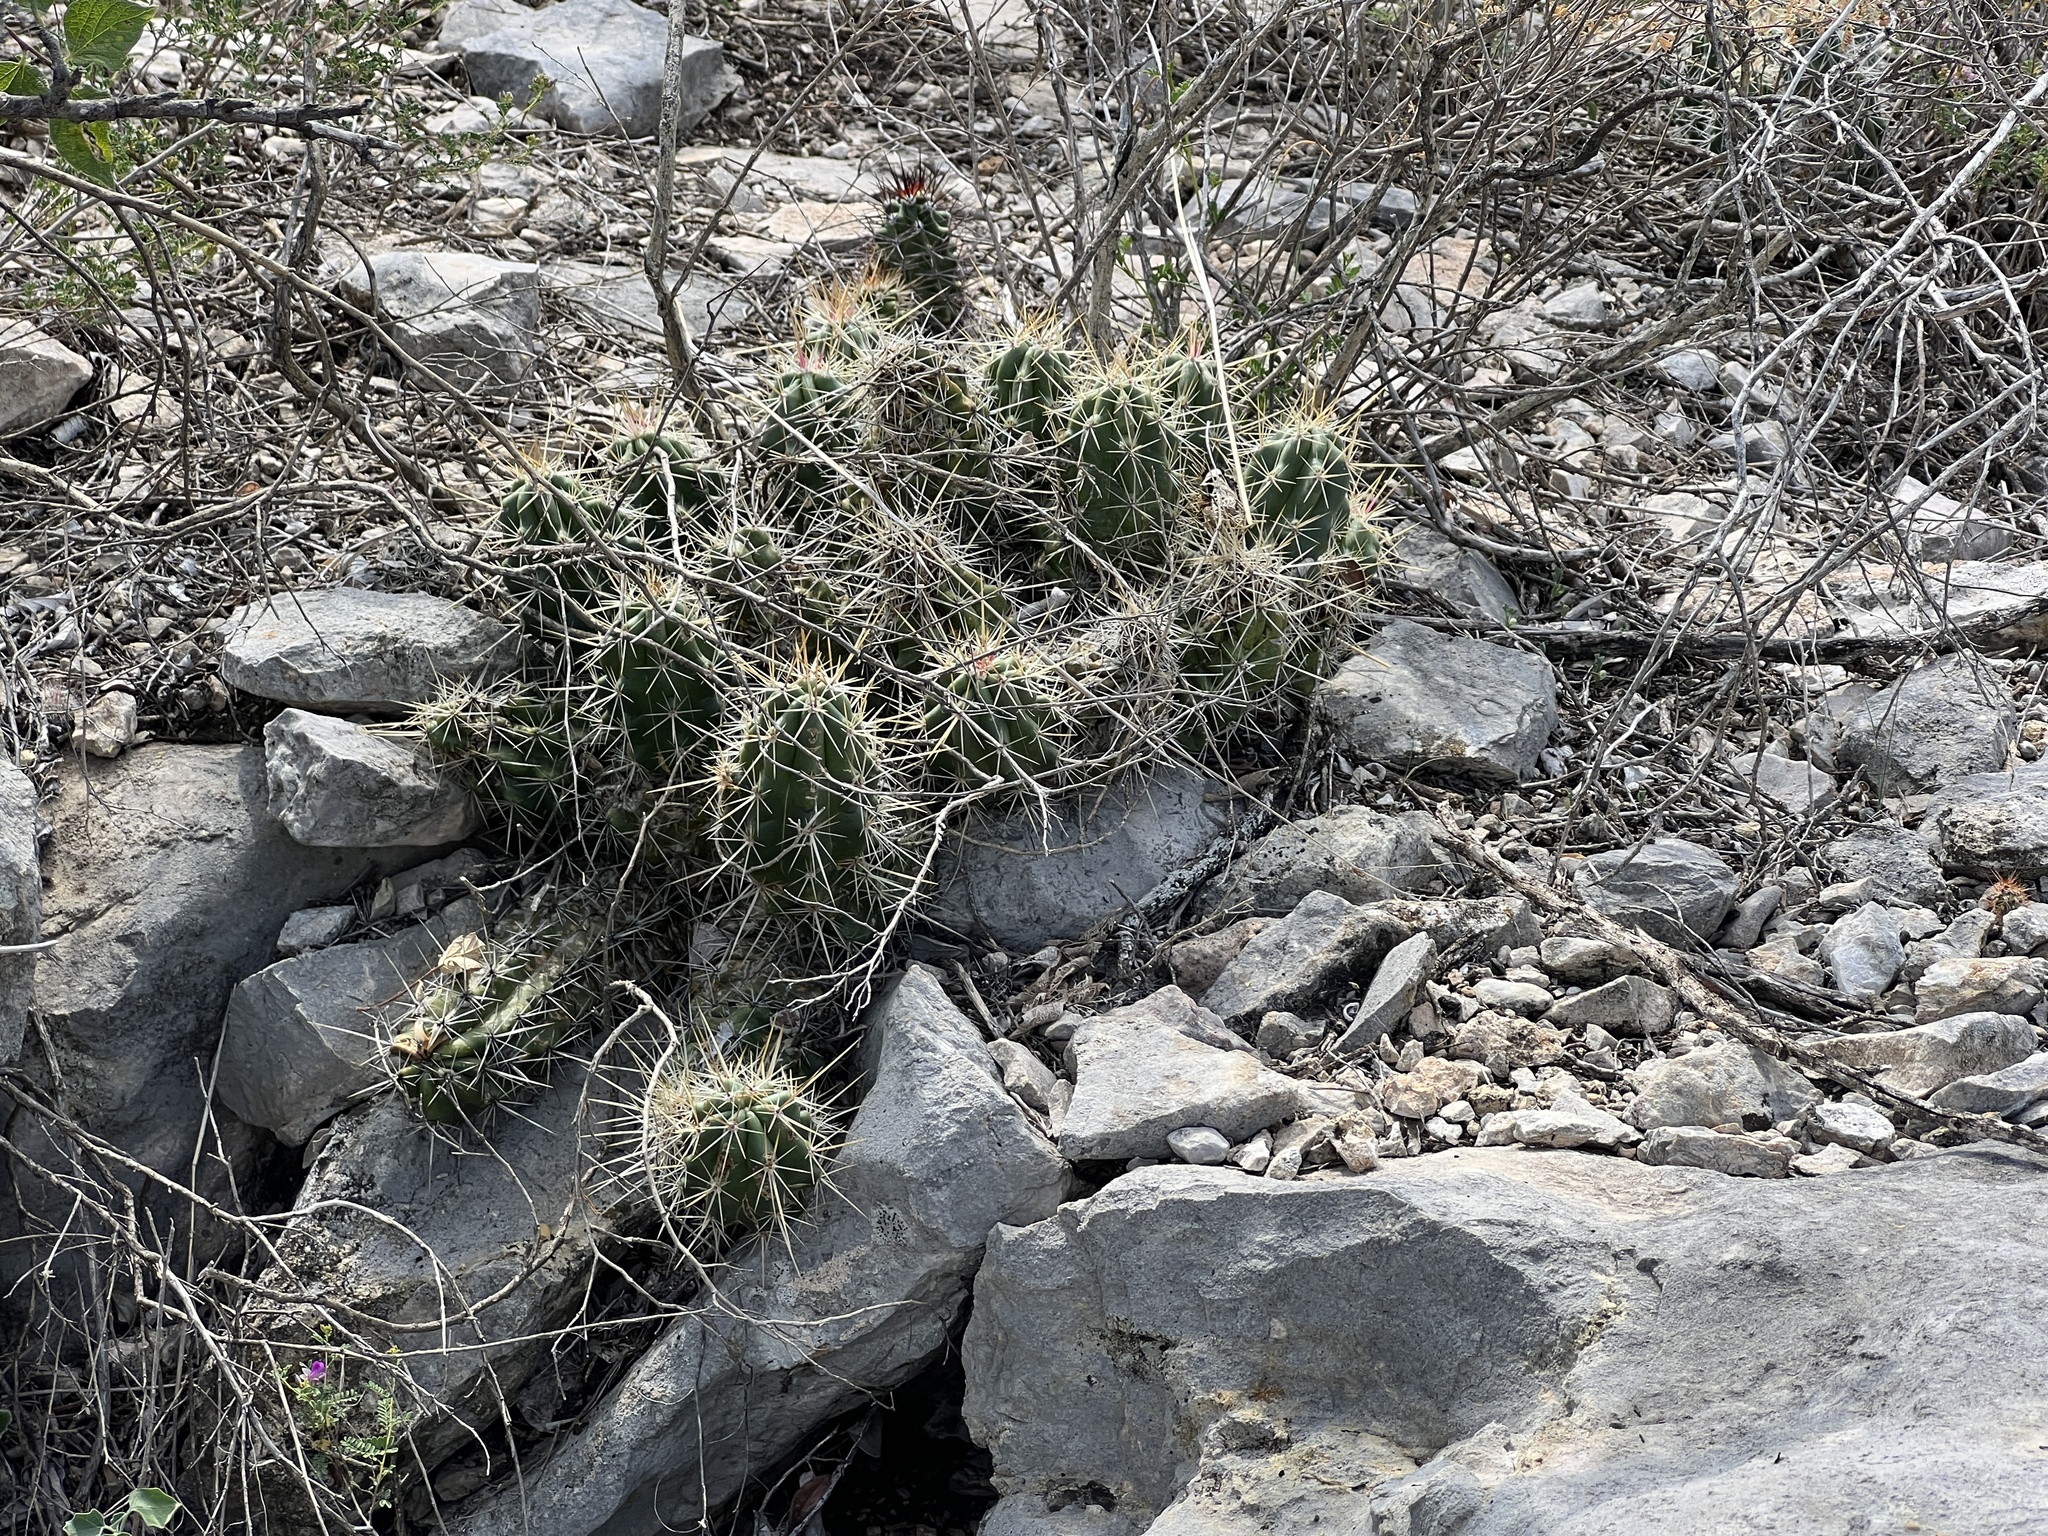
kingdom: Plantae
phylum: Tracheophyta
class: Magnoliopsida
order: Caryophyllales
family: Cactaceae
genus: Echinocereus
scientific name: Echinocereus enneacanthus
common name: Pitaya
